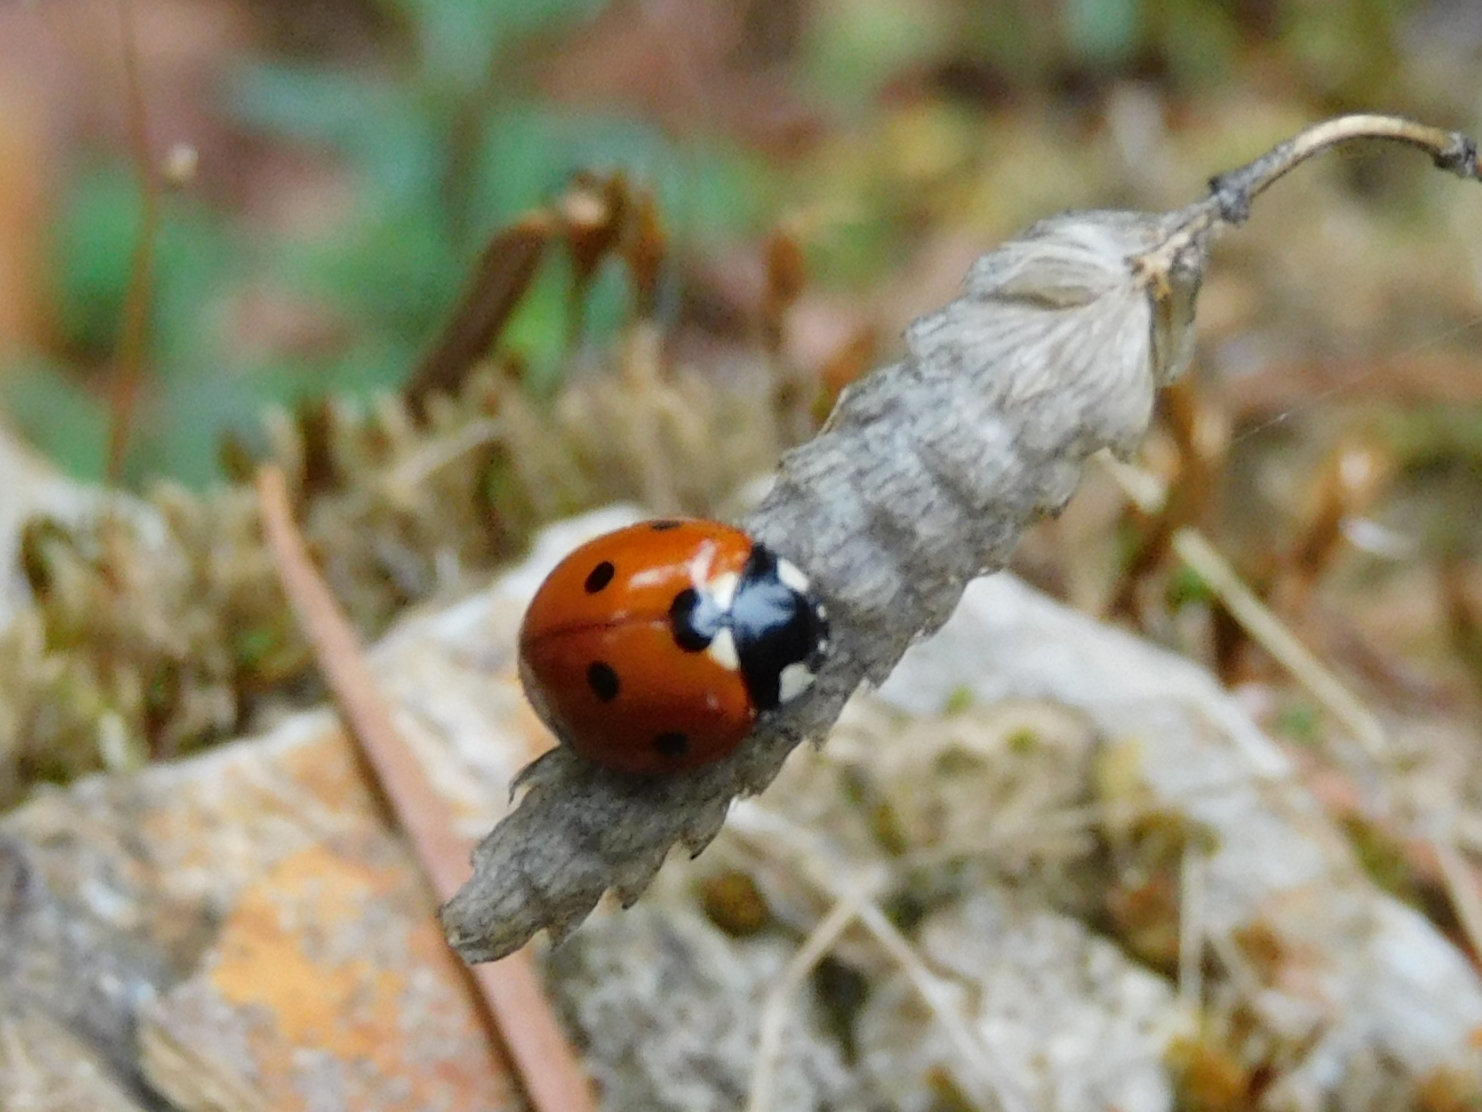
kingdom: Animalia
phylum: Arthropoda
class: Insecta
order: Coleoptera
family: Coccinellidae
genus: Coccinella
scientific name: Coccinella septempunctata
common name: Sevenspotted lady beetle
